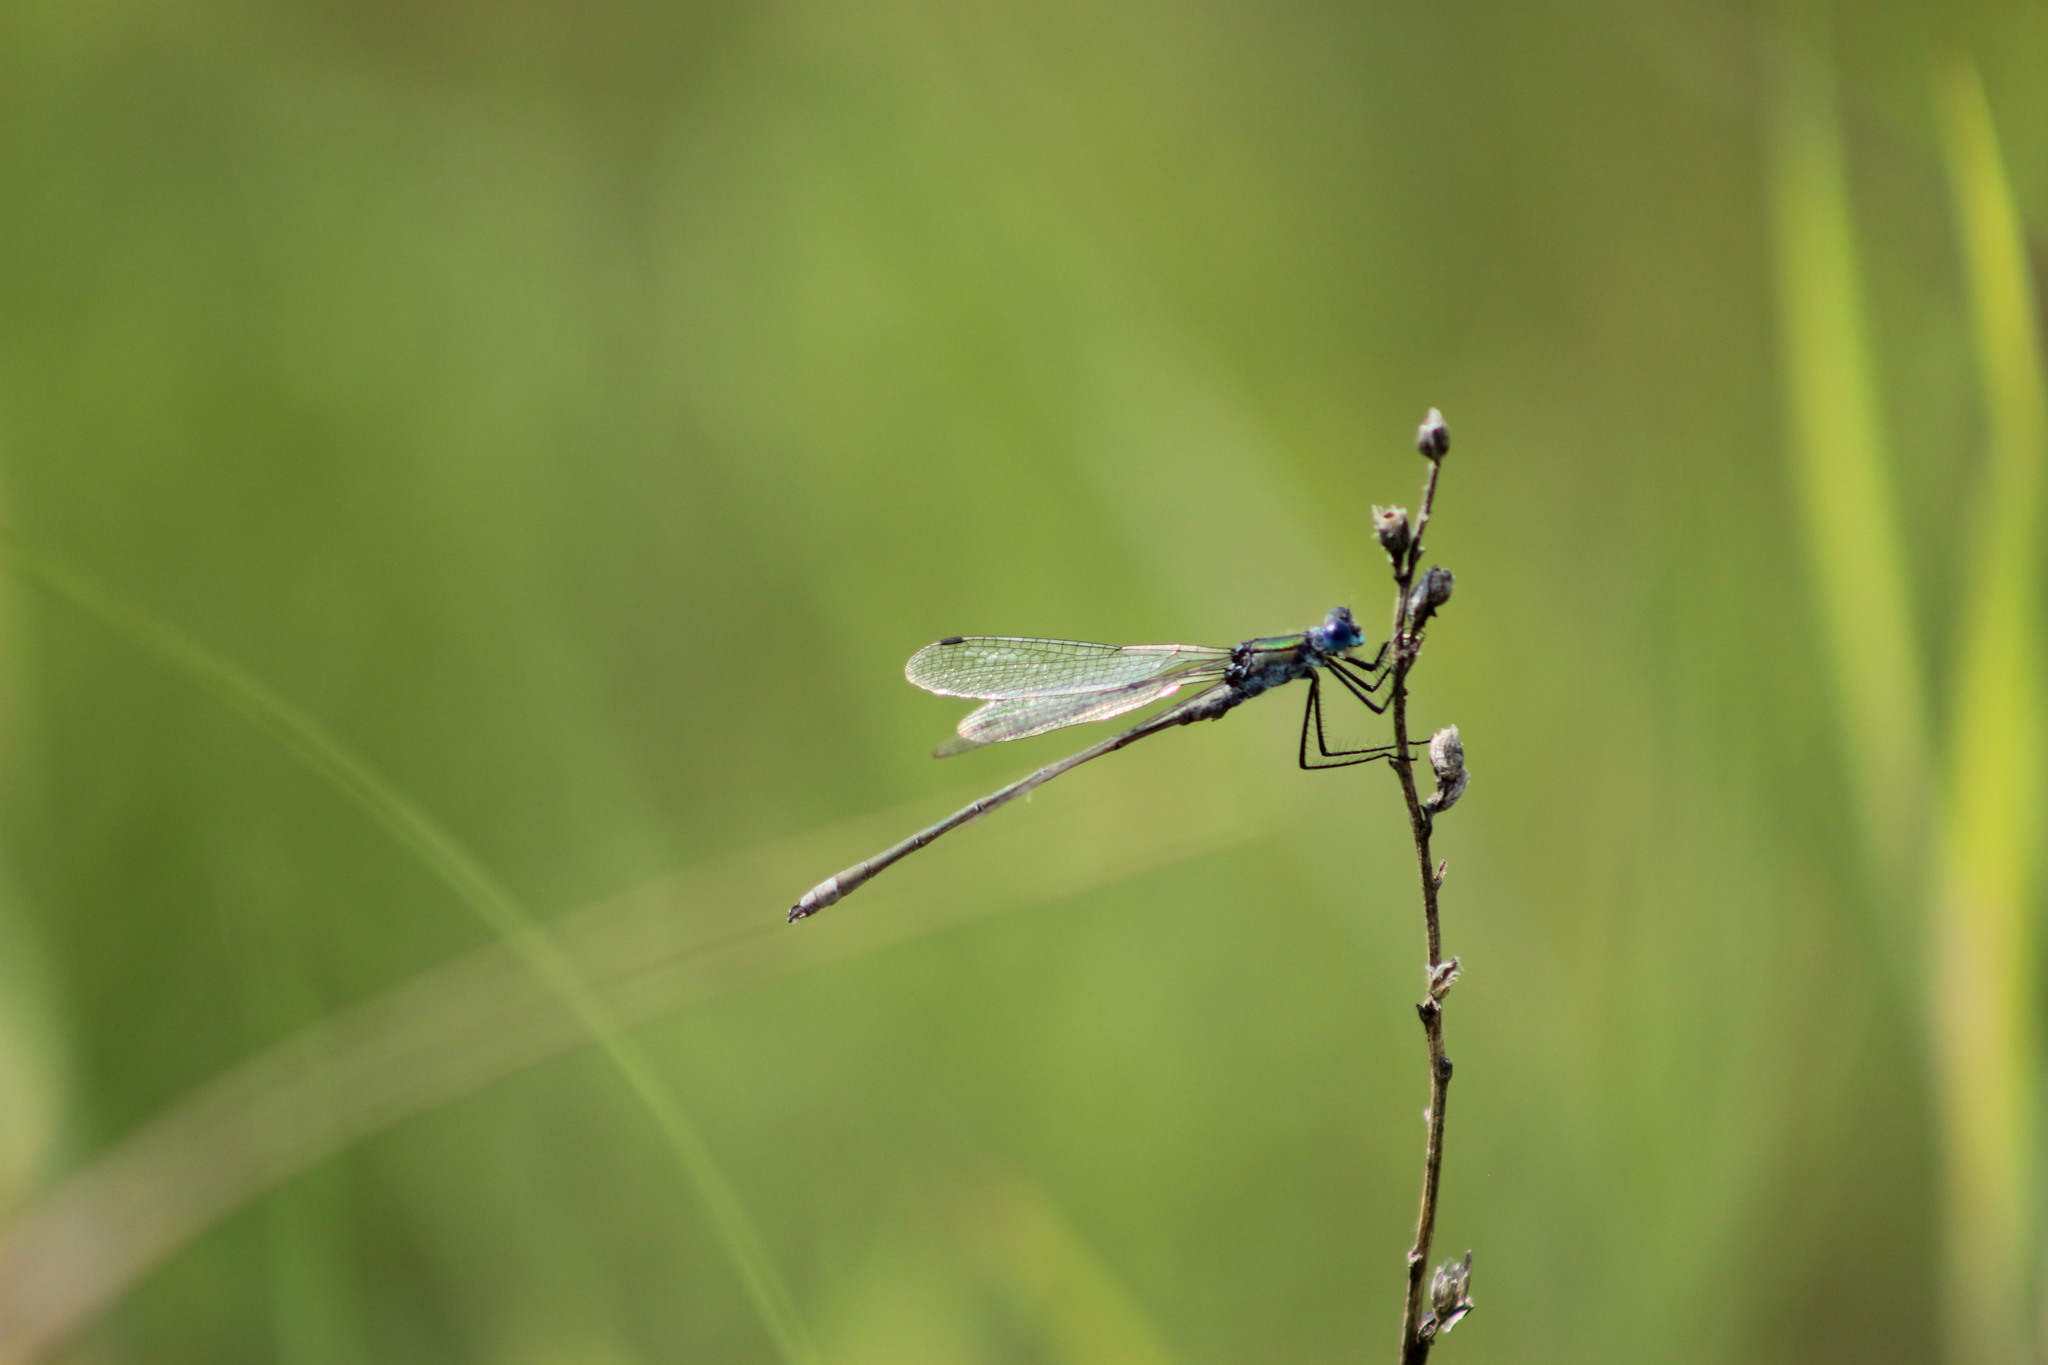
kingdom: Animalia
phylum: Arthropoda
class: Insecta
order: Odonata
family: Lestidae
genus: Lestes
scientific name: Lestes sponsa
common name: Common spreadwing
